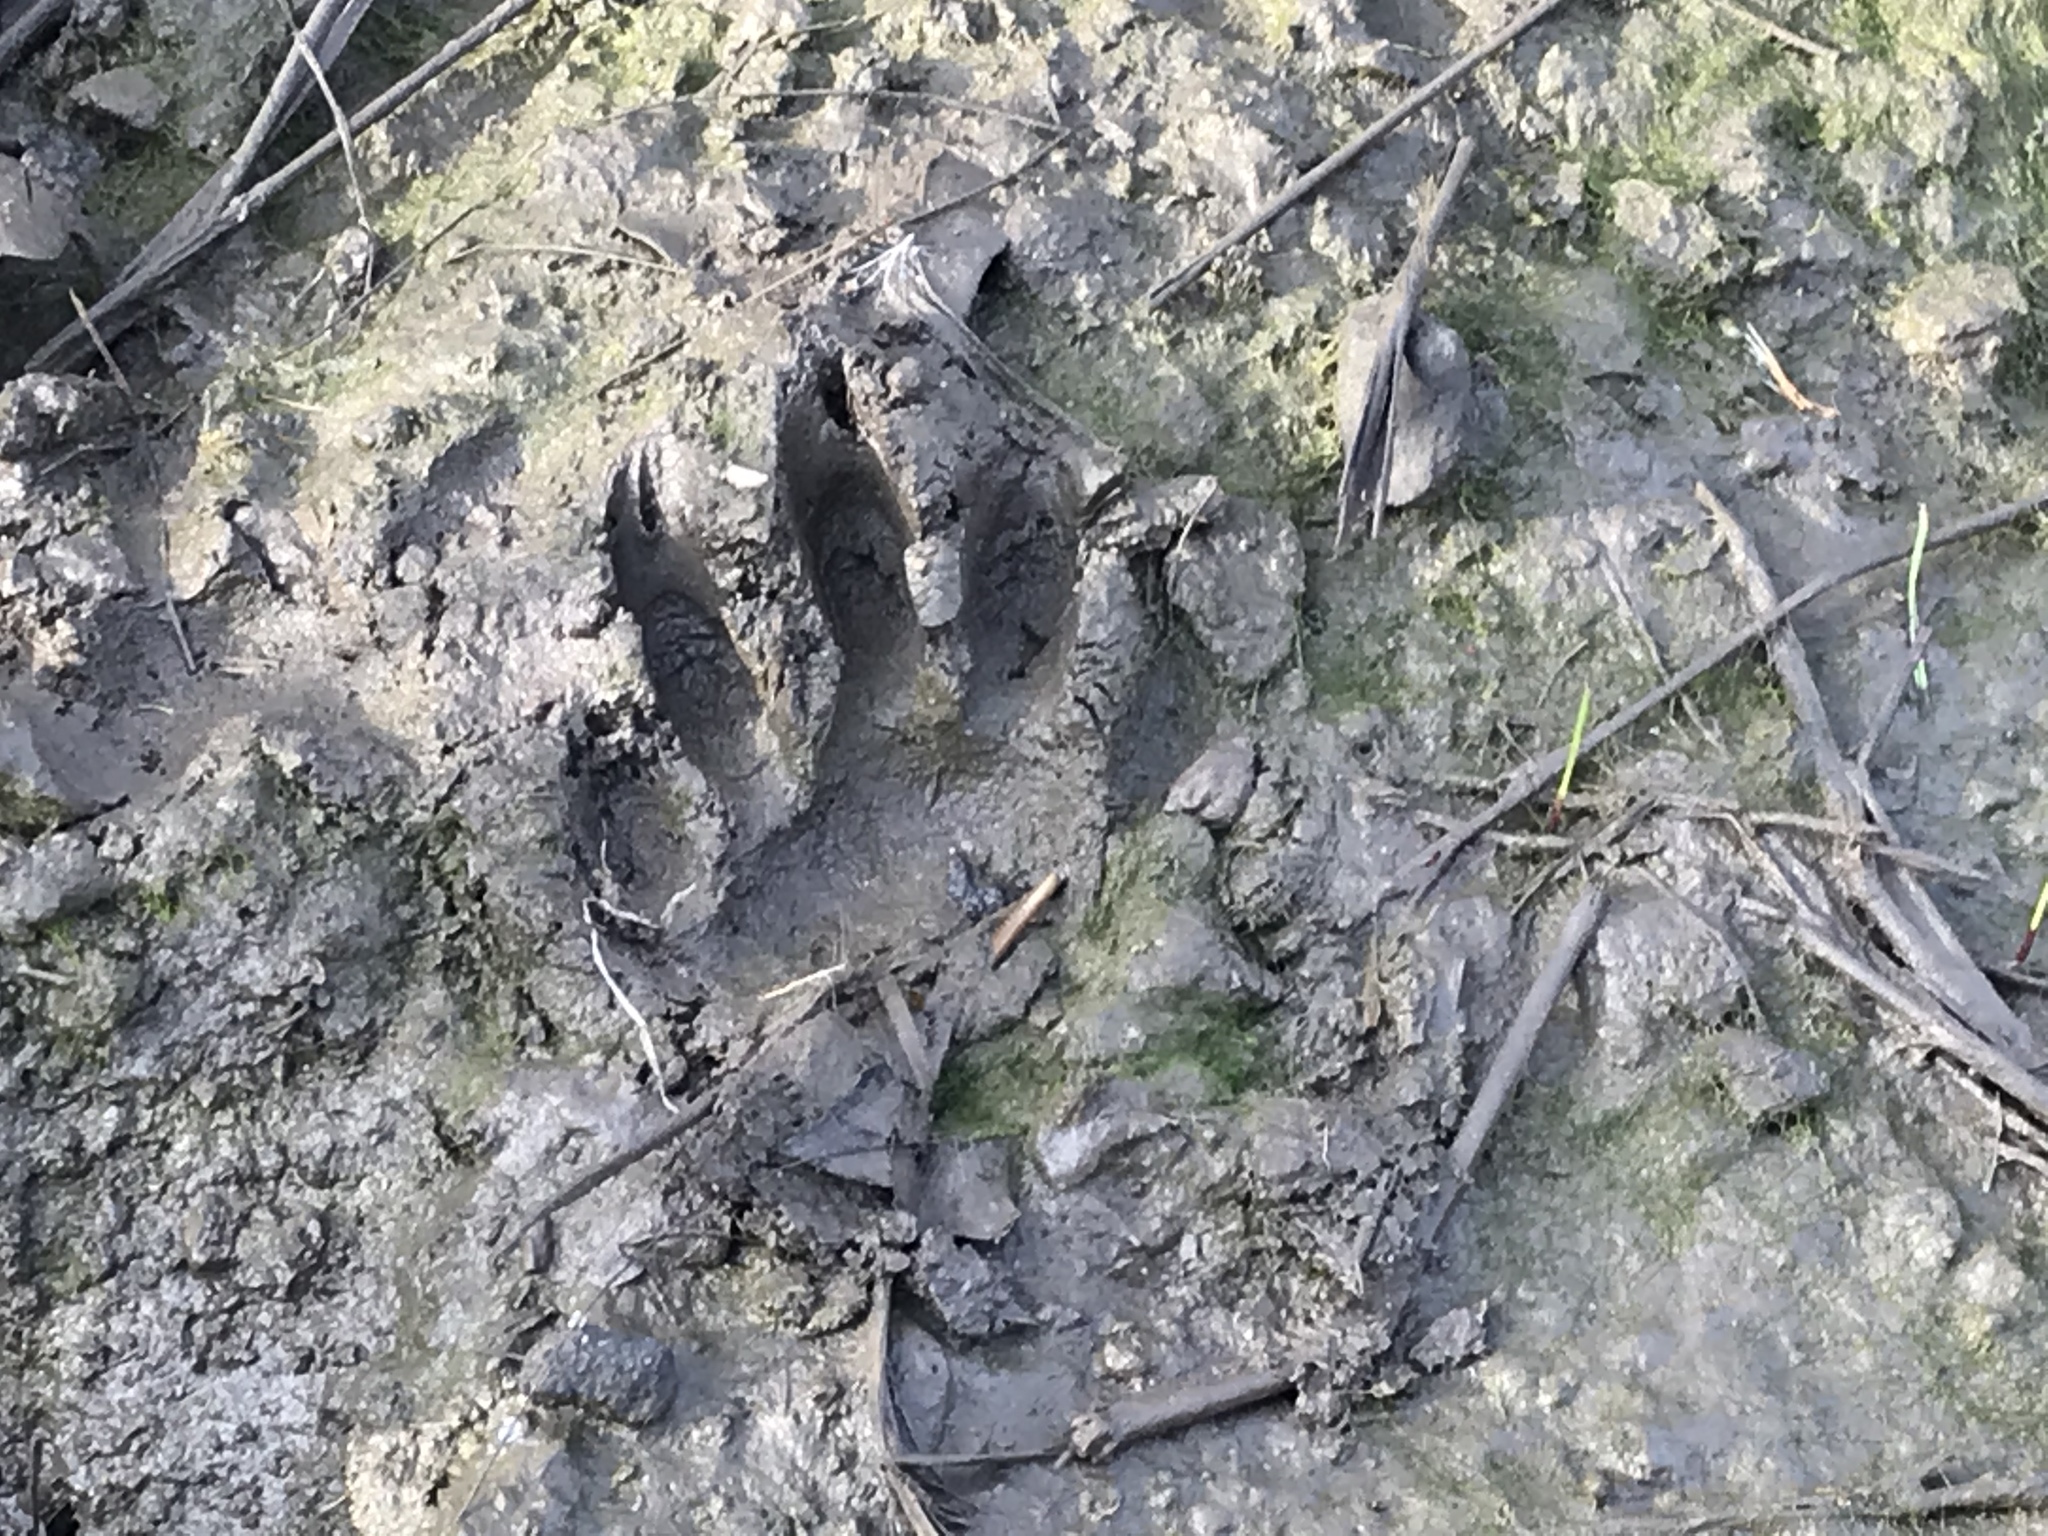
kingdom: Animalia
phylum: Chordata
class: Mammalia
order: Carnivora
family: Procyonidae
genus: Procyon
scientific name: Procyon lotor
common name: Raccoon
